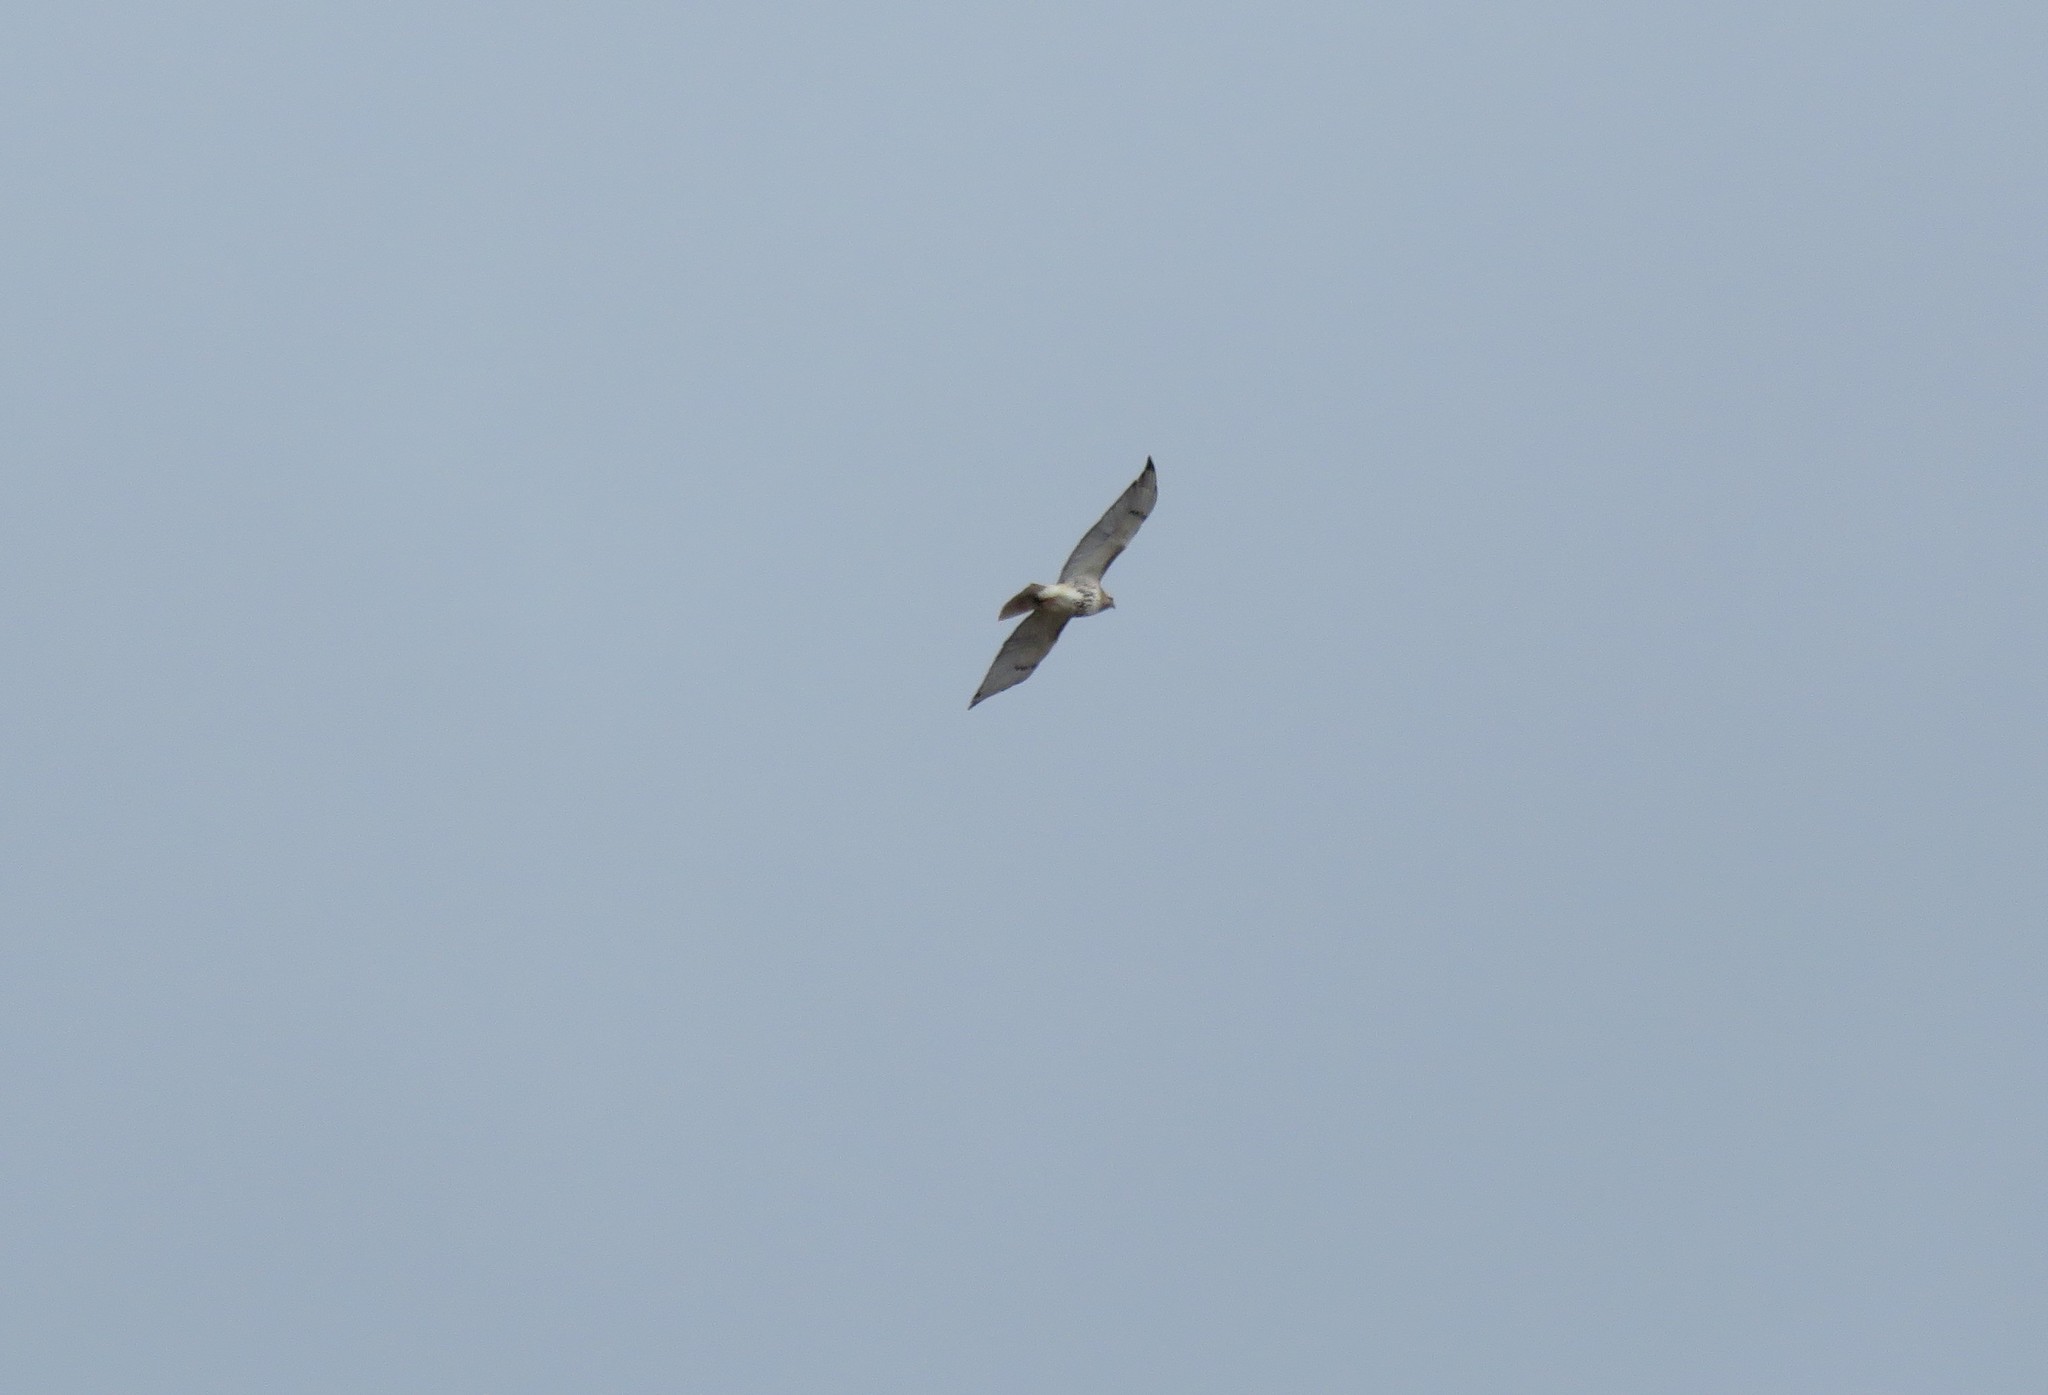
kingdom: Animalia
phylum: Chordata
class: Aves
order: Accipitriformes
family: Accipitridae
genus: Buteo
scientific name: Buteo jamaicensis
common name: Red-tailed hawk
